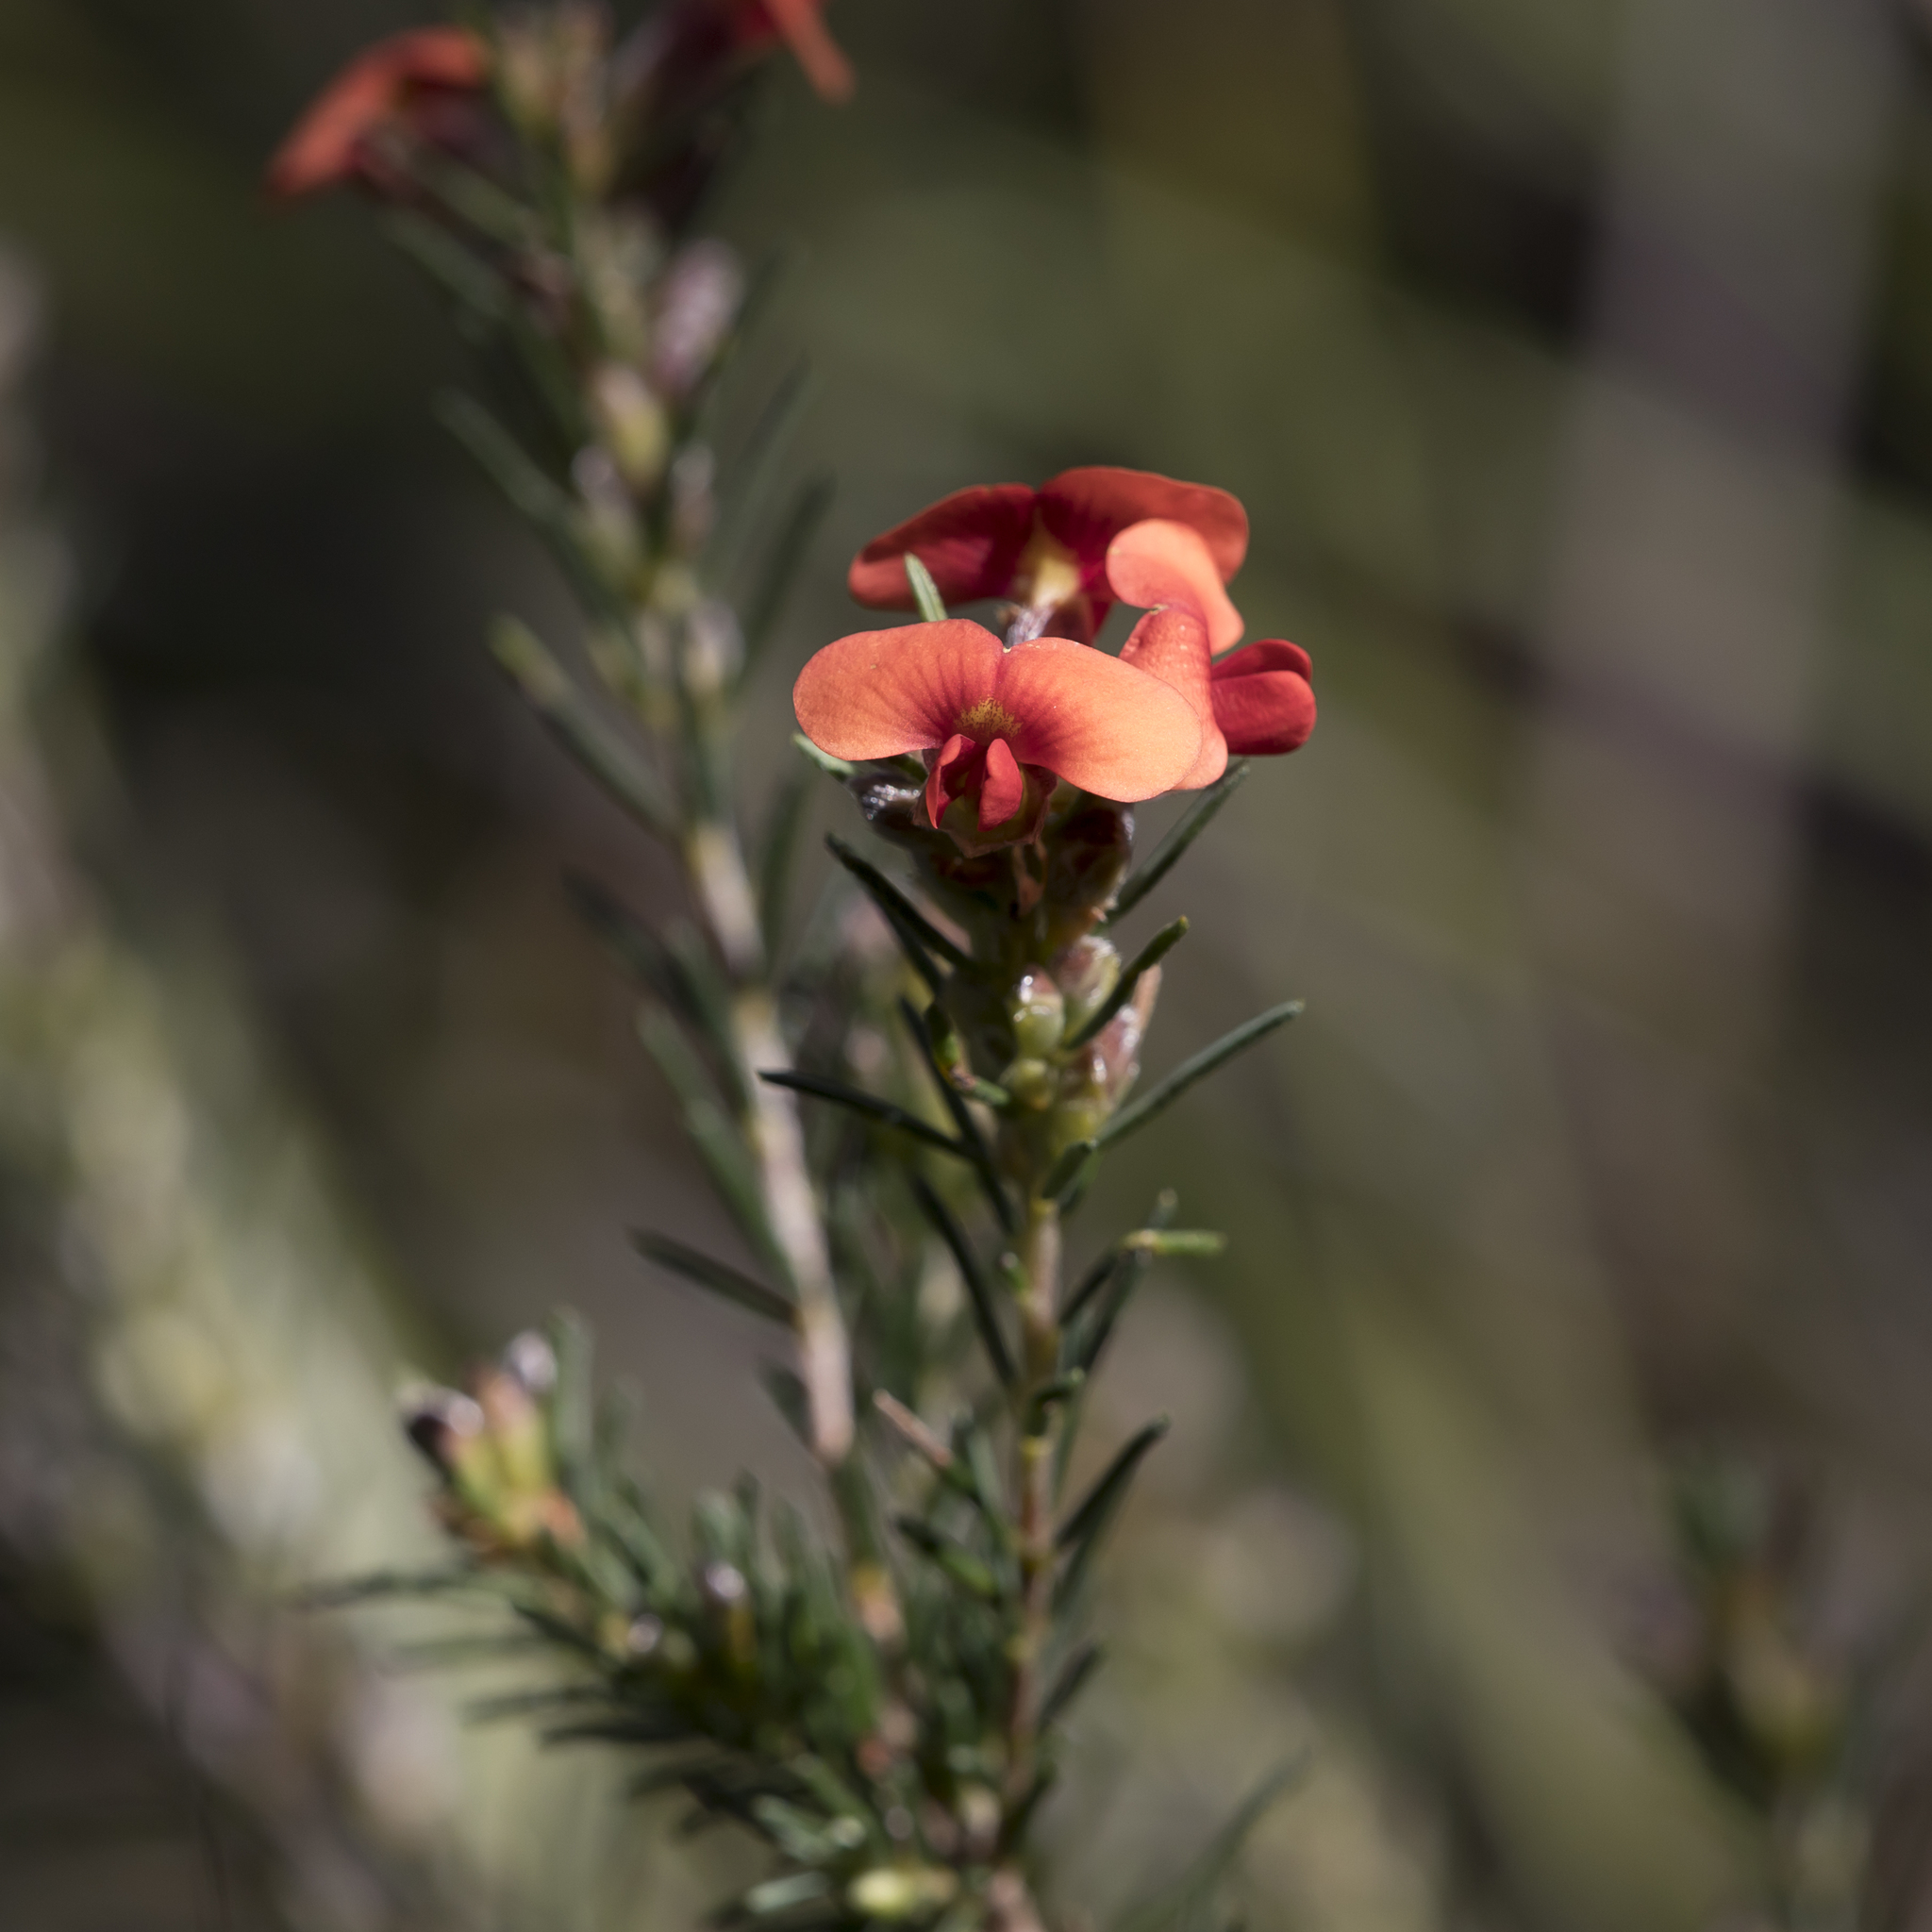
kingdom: Plantae
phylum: Tracheophyta
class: Magnoliopsida
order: Fabales
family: Fabaceae
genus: Dillwynia
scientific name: Dillwynia sericea
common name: Showy parrot-pea
